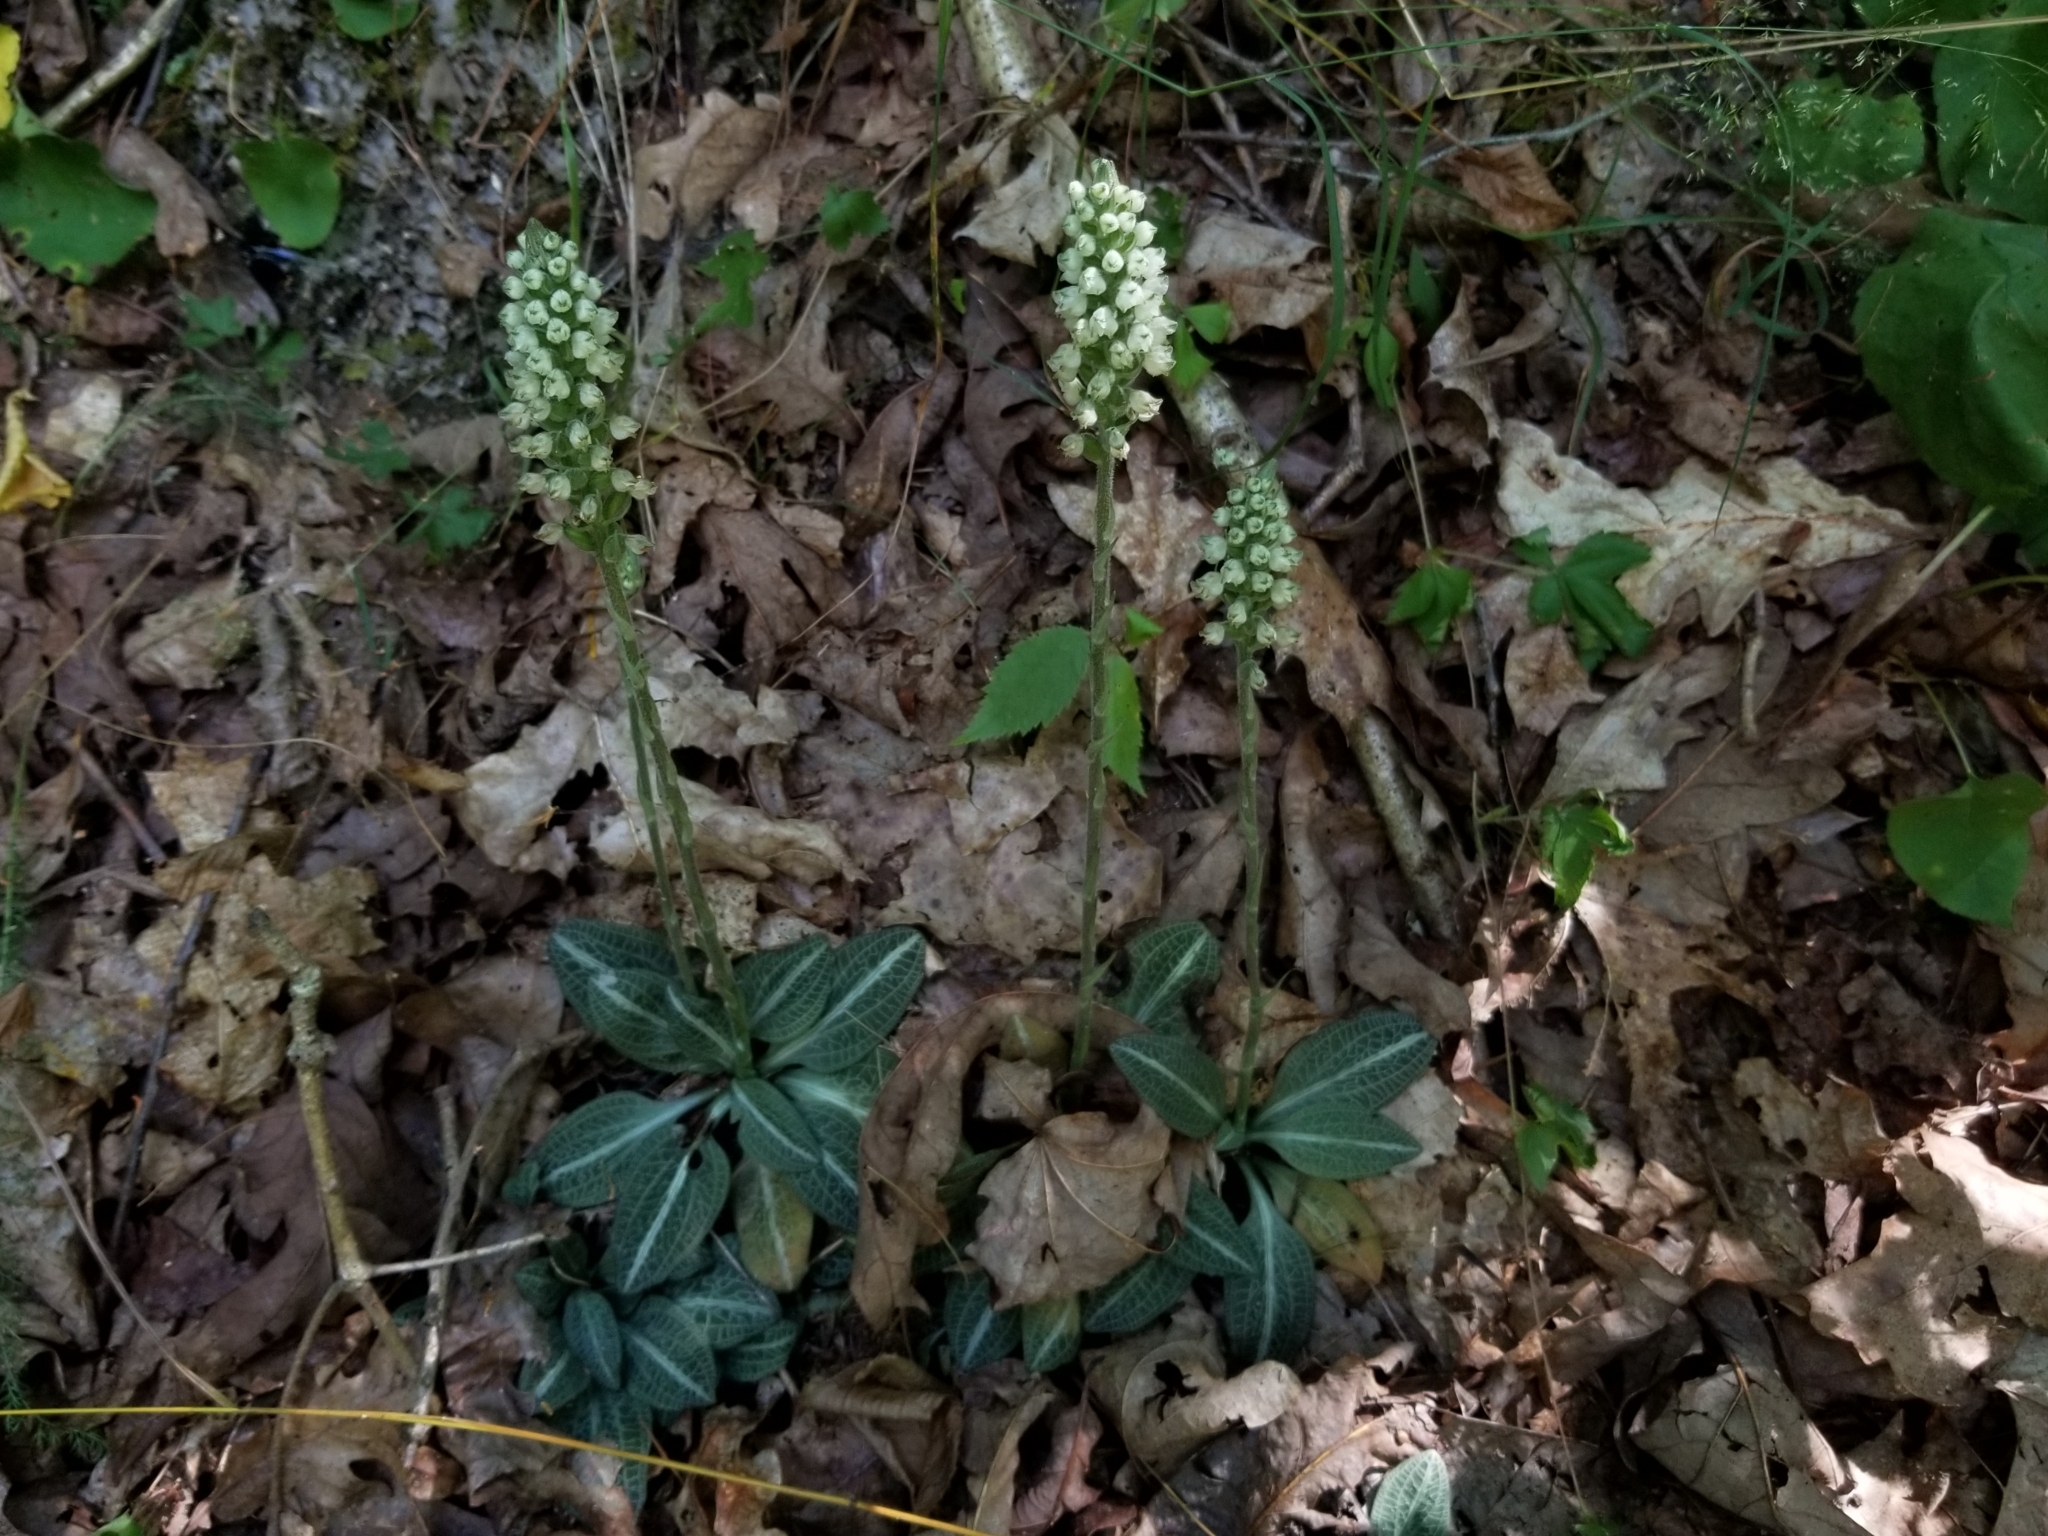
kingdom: Plantae
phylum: Tracheophyta
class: Liliopsida
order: Asparagales
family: Orchidaceae
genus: Goodyera
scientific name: Goodyera pubescens
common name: Downy rattlesnake-plantain
